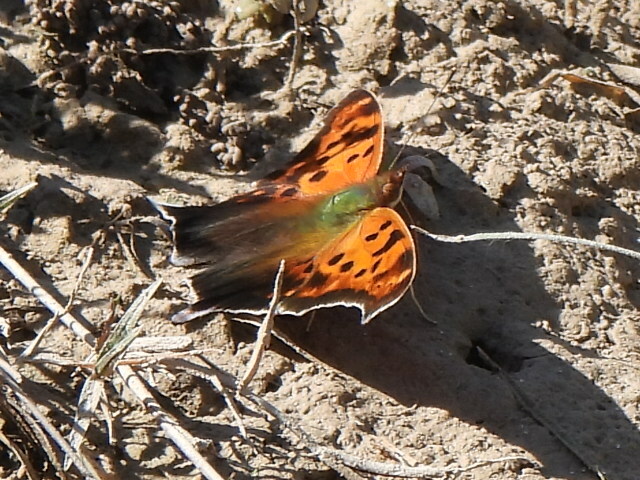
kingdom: Animalia
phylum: Arthropoda
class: Insecta
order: Lepidoptera
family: Nymphalidae
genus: Polygonia
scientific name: Polygonia interrogationis
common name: Question mark
